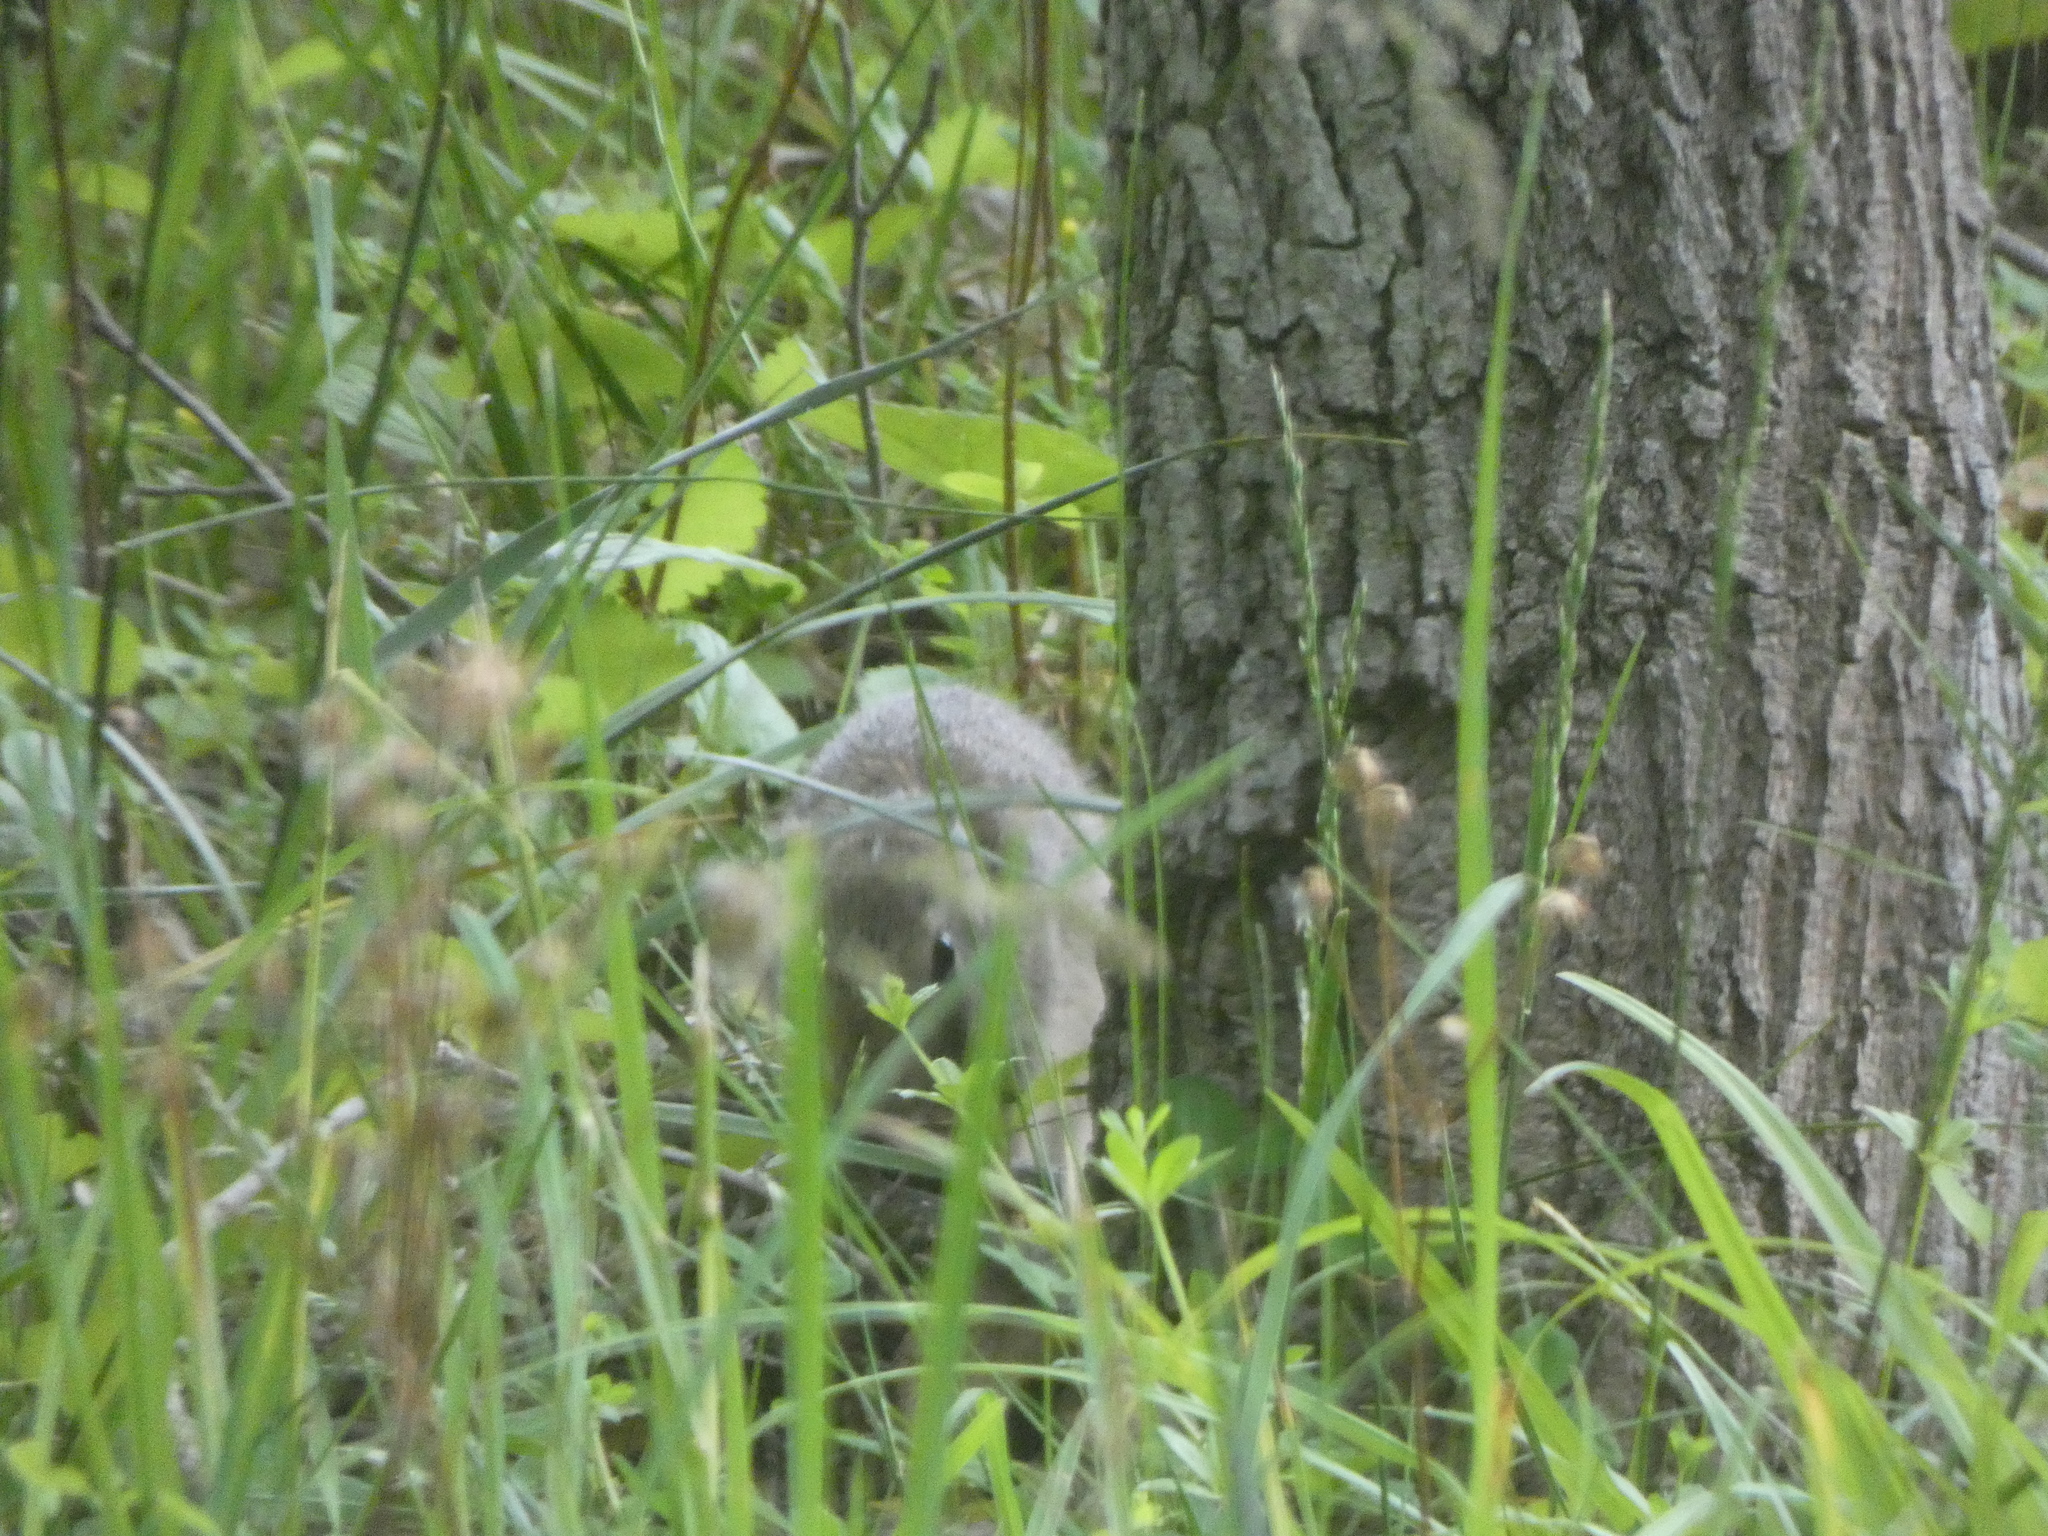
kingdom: Animalia
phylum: Chordata
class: Mammalia
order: Lagomorpha
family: Leporidae
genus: Sylvilagus
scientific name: Sylvilagus floridanus
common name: Eastern cottontail
